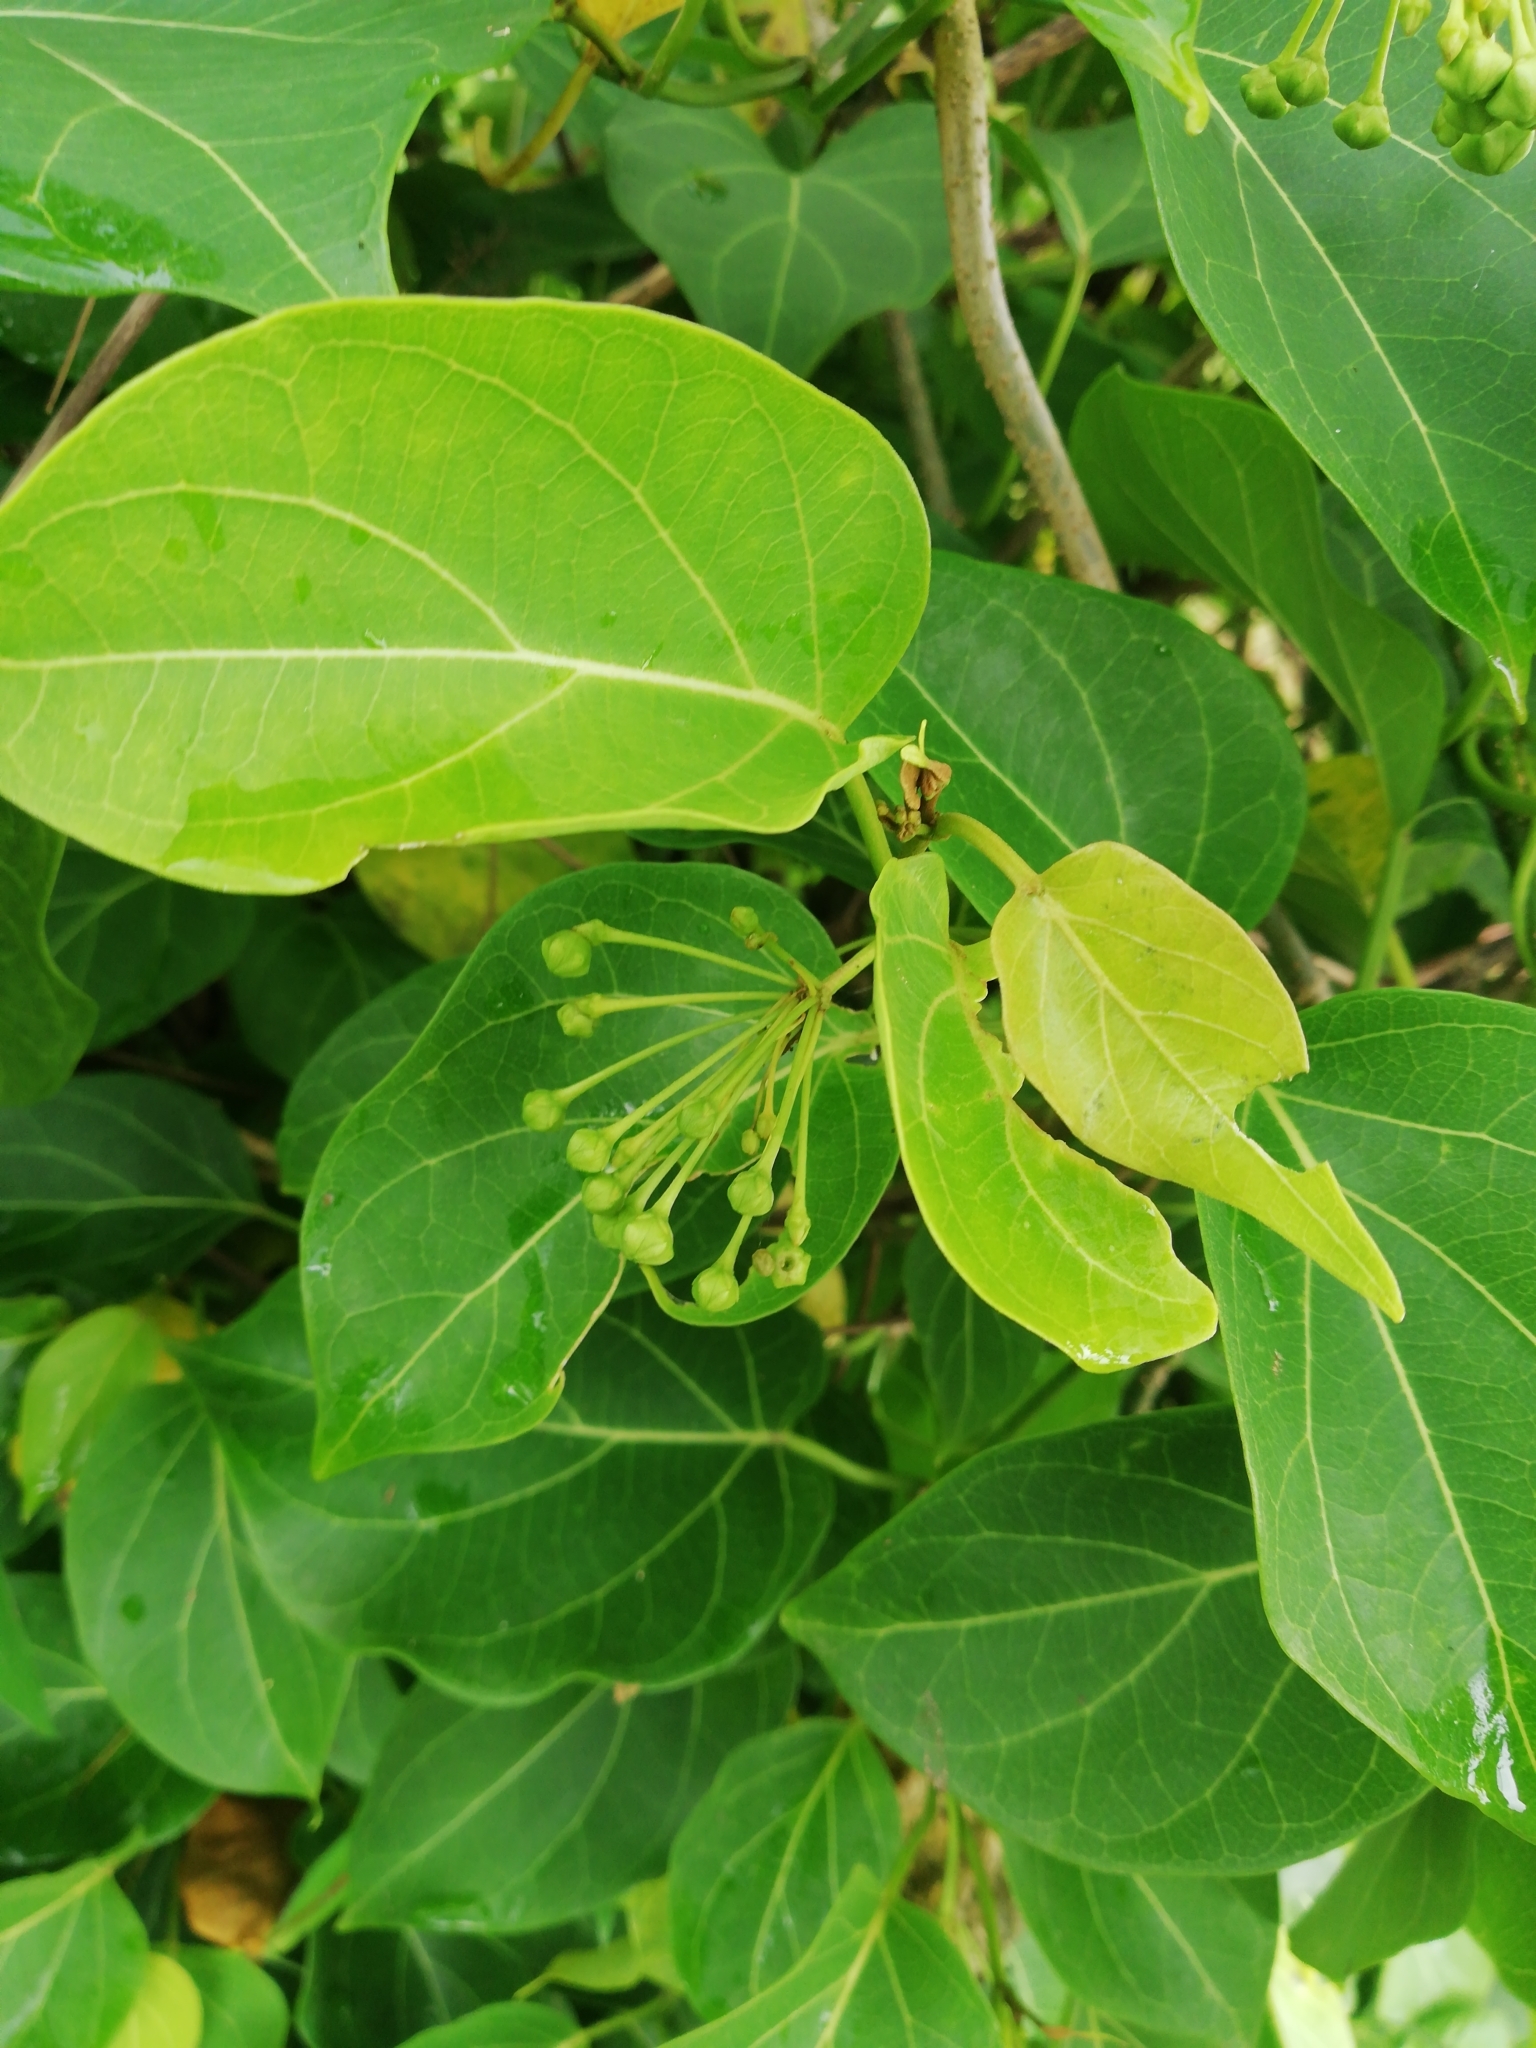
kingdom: Plantae
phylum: Tracheophyta
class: Magnoliopsida
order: Gentianales
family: Apocynaceae
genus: Stephanotis
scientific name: Stephanotis volubilis
